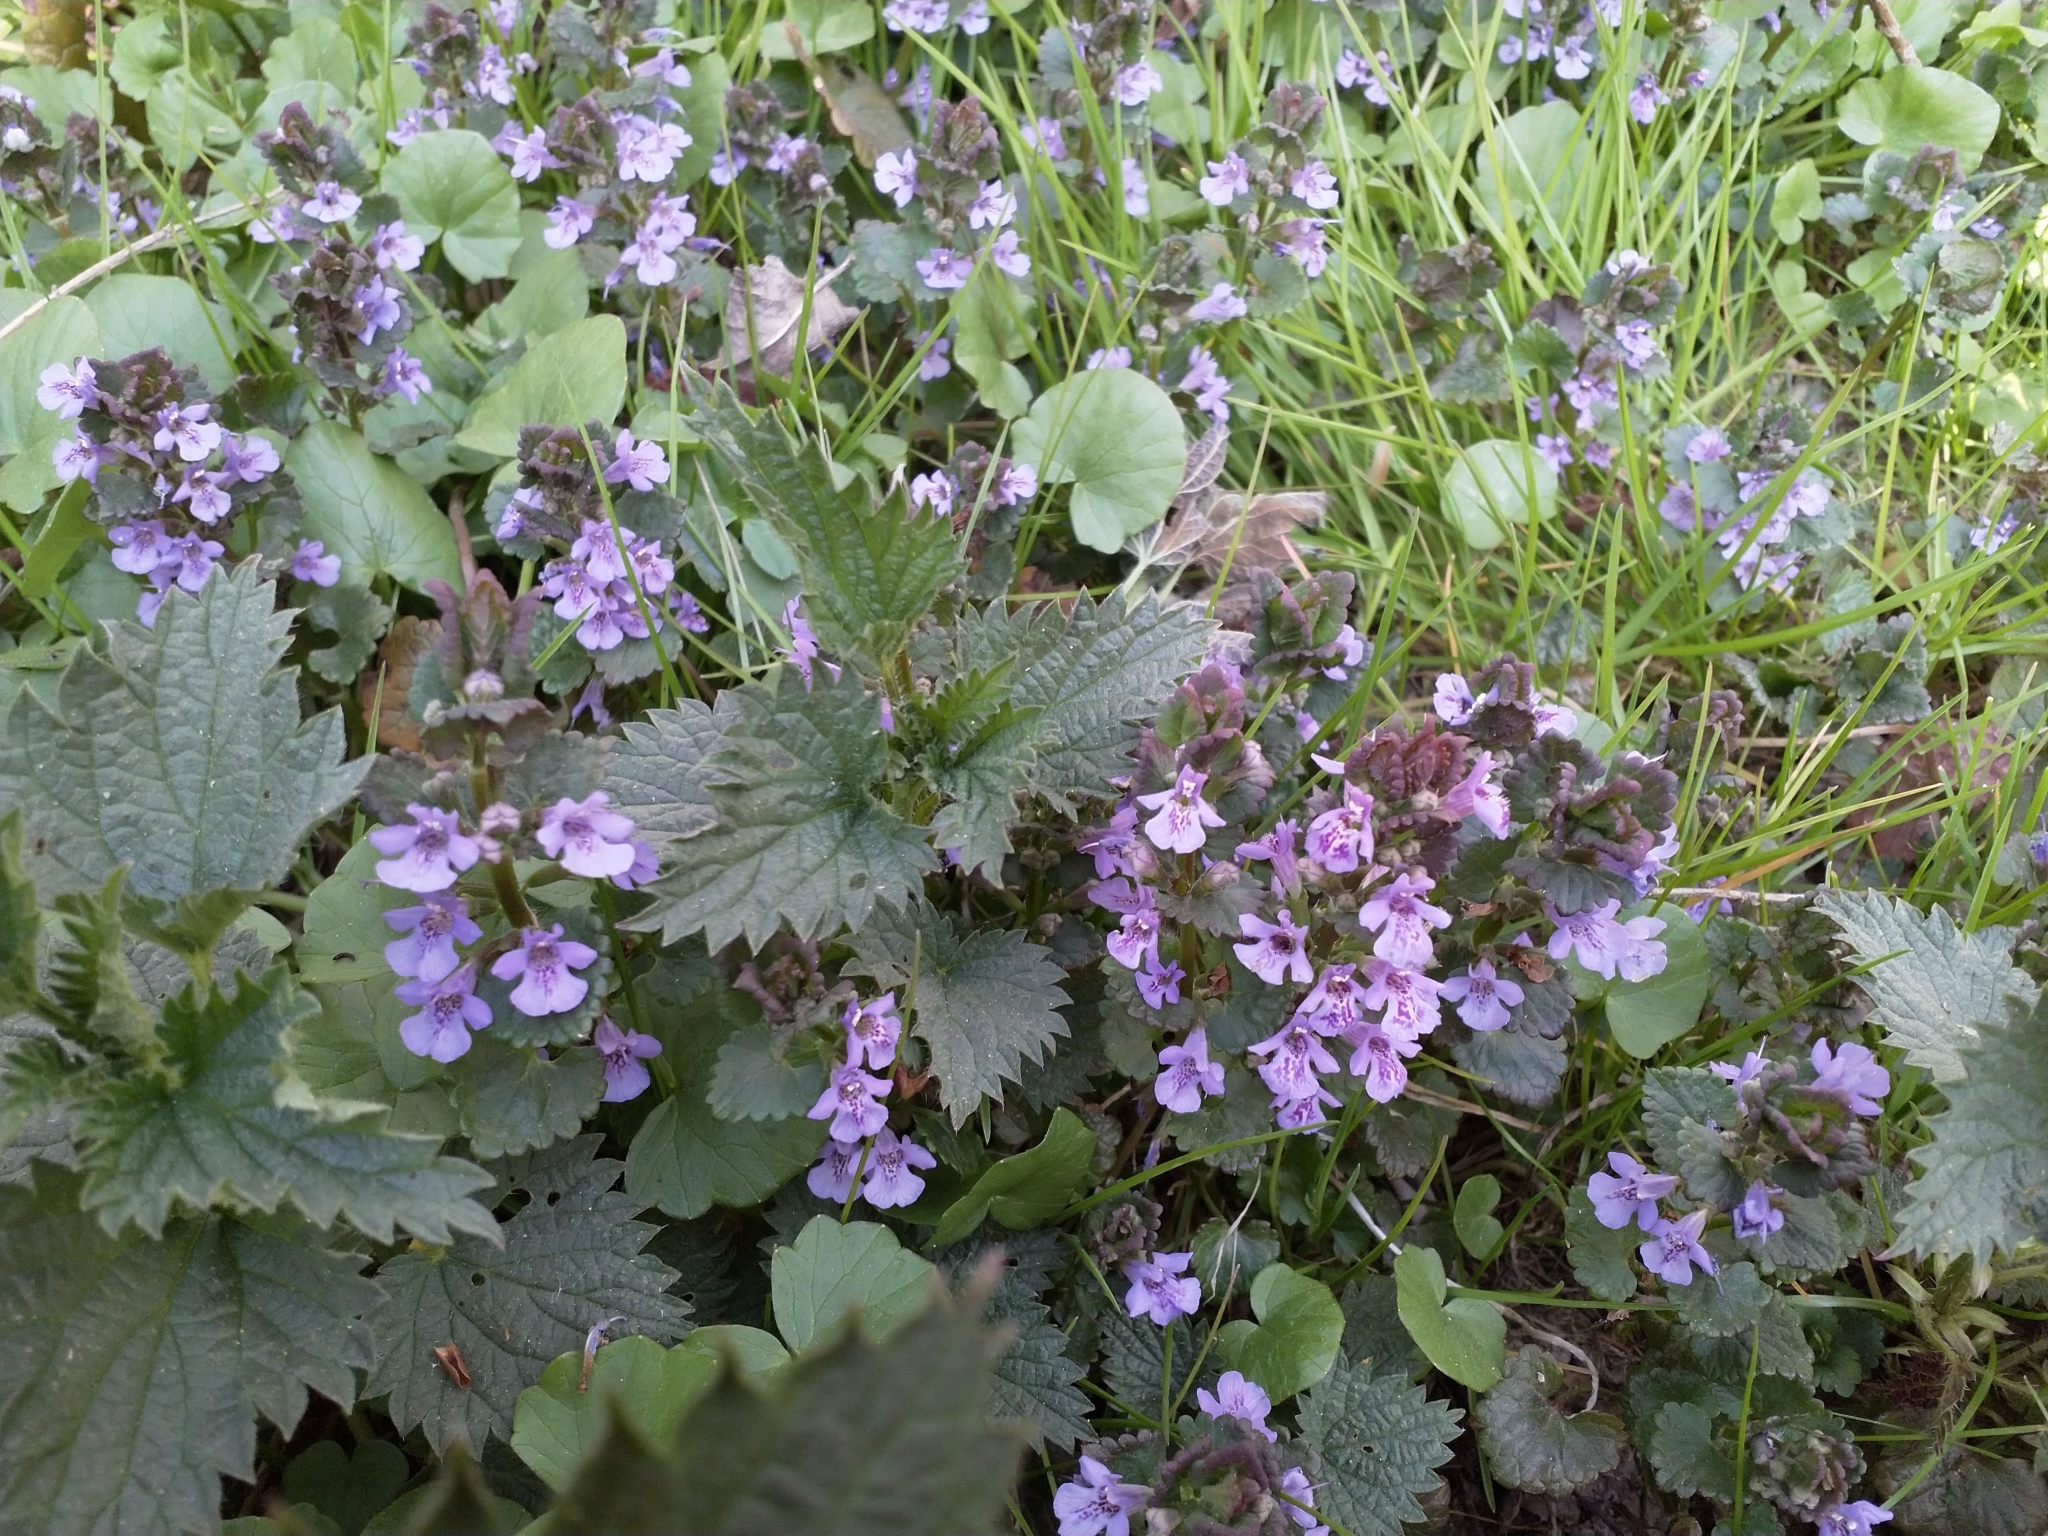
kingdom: Plantae
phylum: Tracheophyta
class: Magnoliopsida
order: Lamiales
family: Lamiaceae
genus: Glechoma
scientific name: Glechoma hederacea
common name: Ground ivy
